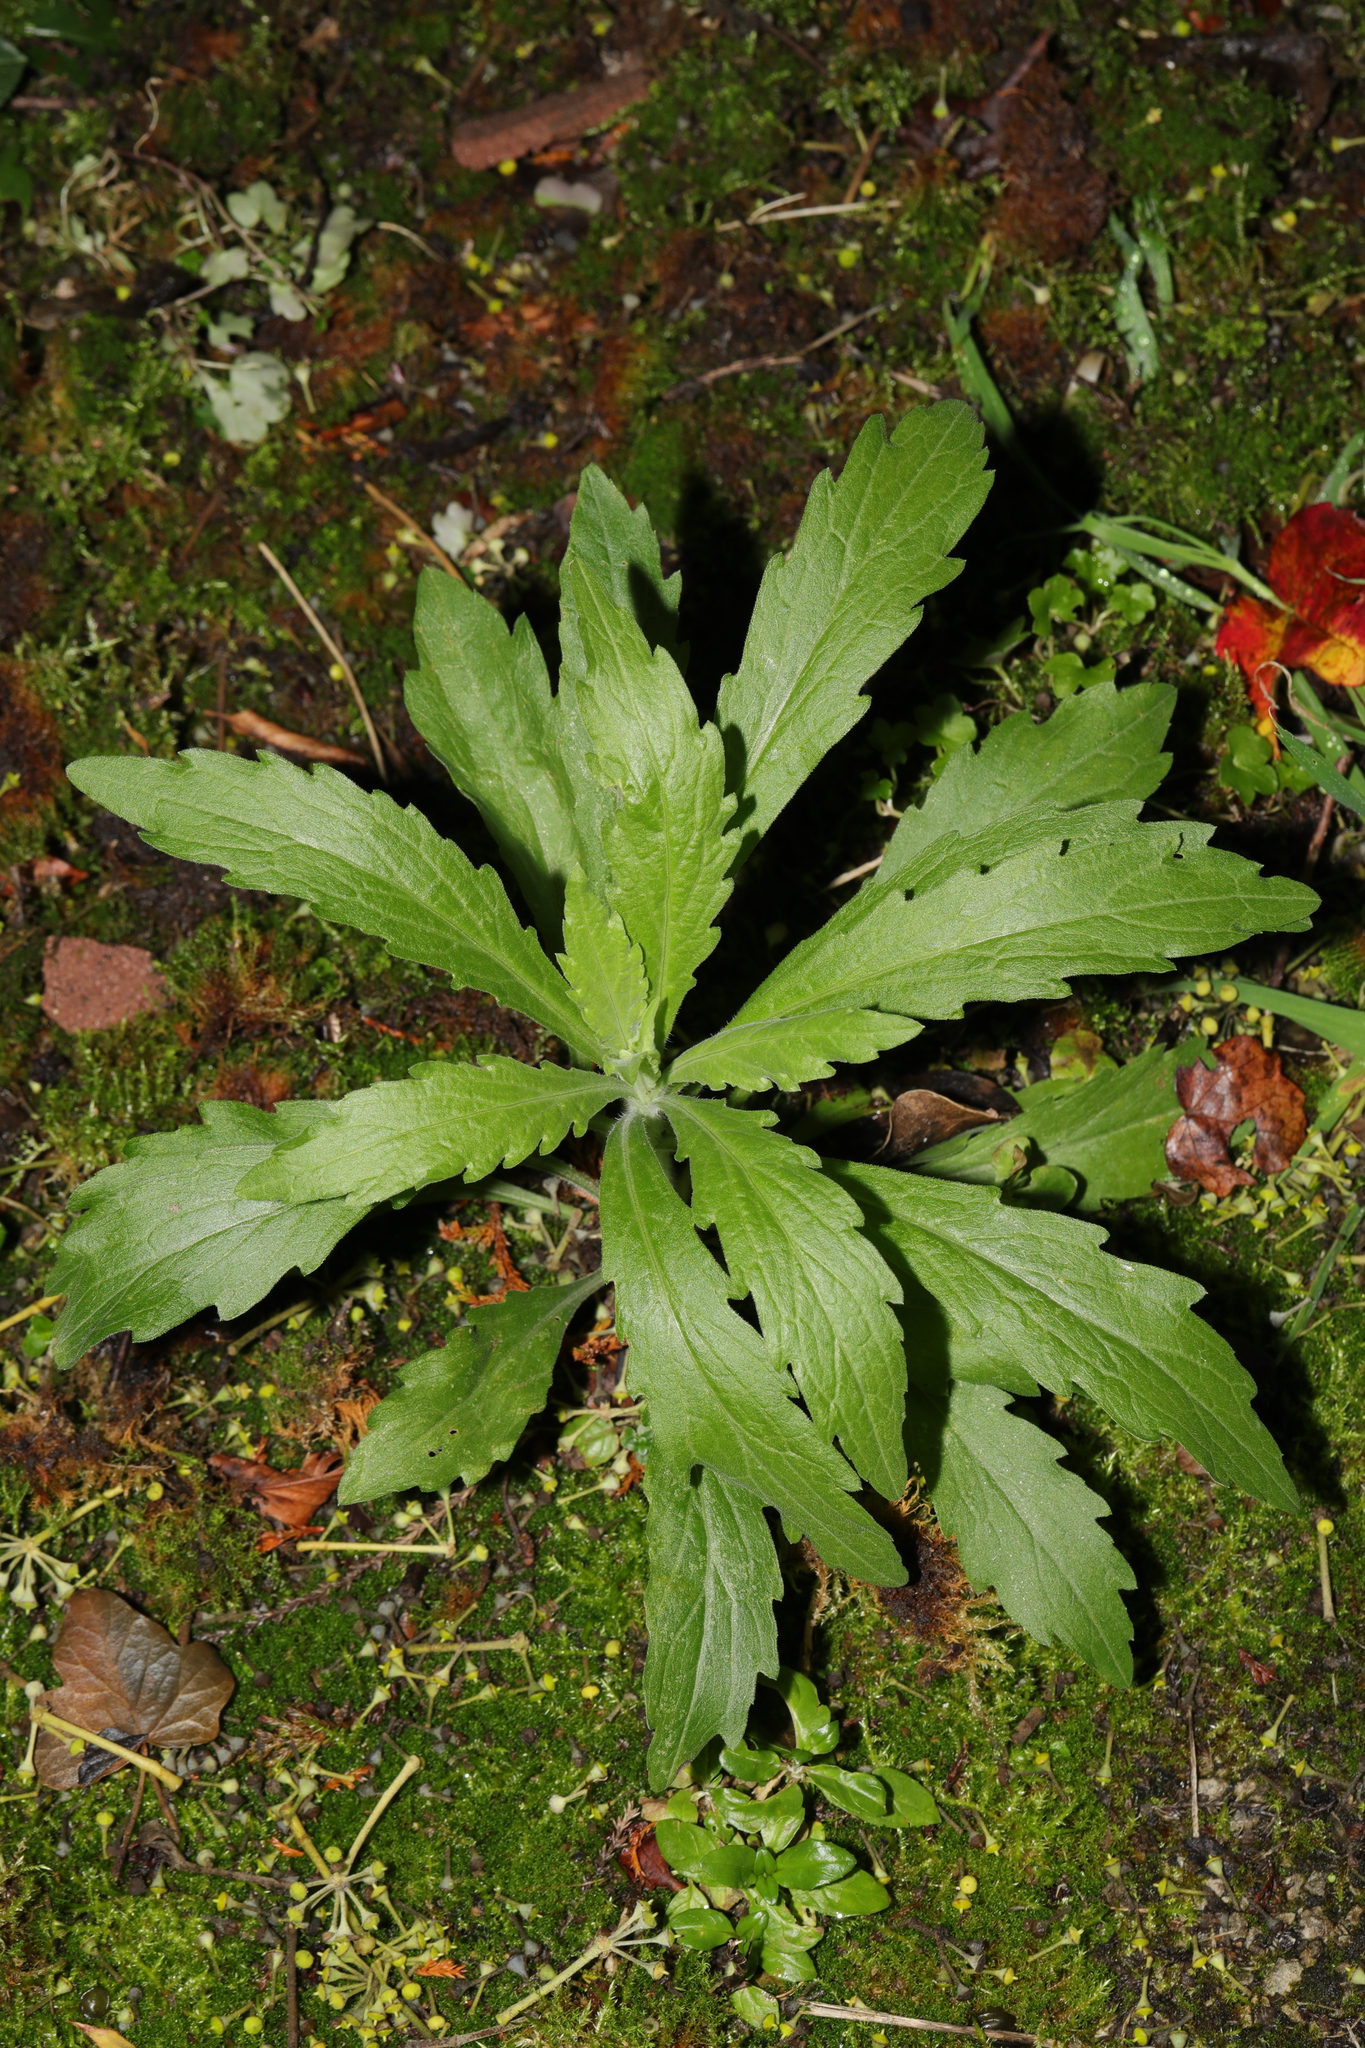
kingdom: Plantae
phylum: Tracheophyta
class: Magnoliopsida
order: Asterales
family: Asteraceae
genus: Erigeron
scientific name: Erigeron sumatrensis
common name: Daisy
